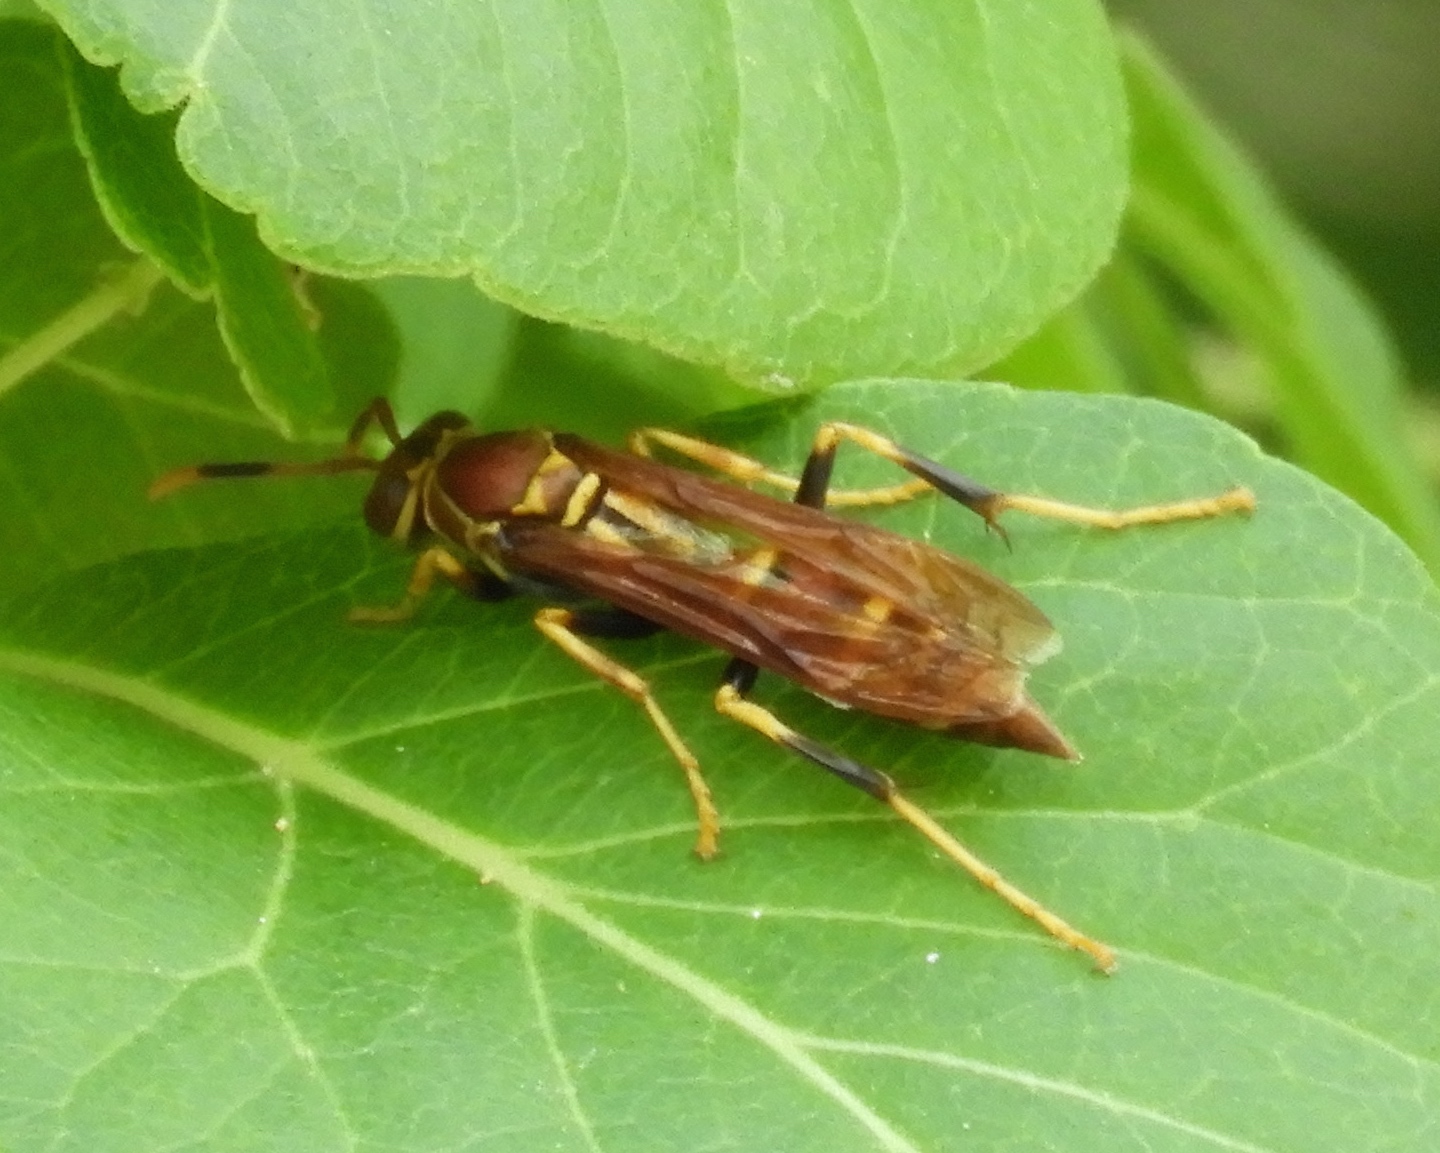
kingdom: Animalia
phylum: Arthropoda
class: Insecta
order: Hymenoptera
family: Eumenidae
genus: Polistes
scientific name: Polistes instabilis
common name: Unstable paper wasp
